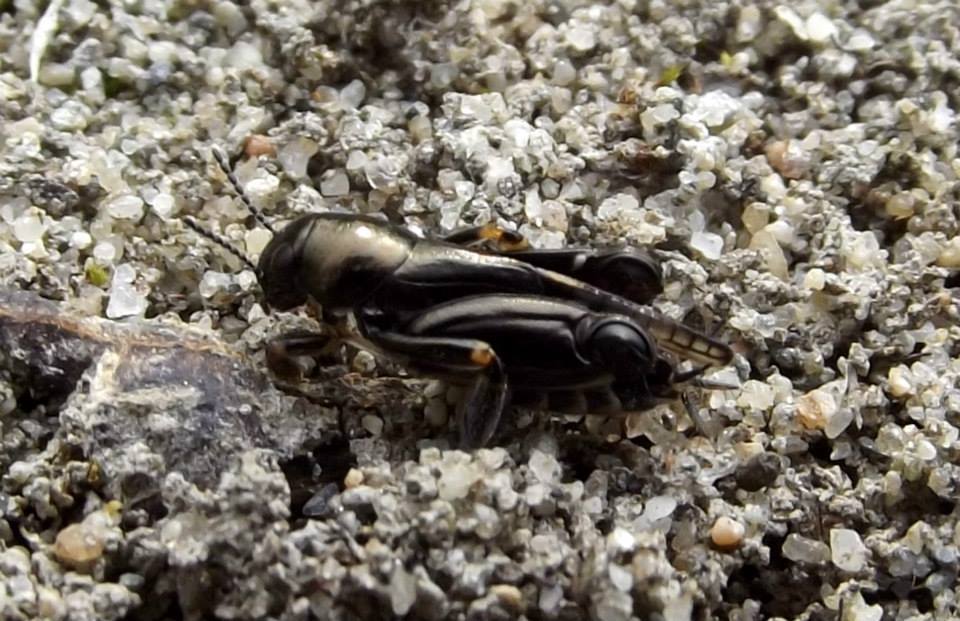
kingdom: Animalia
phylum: Arthropoda
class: Insecta
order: Orthoptera
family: Tridactylidae
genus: Xya
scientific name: Xya pfaendleri
